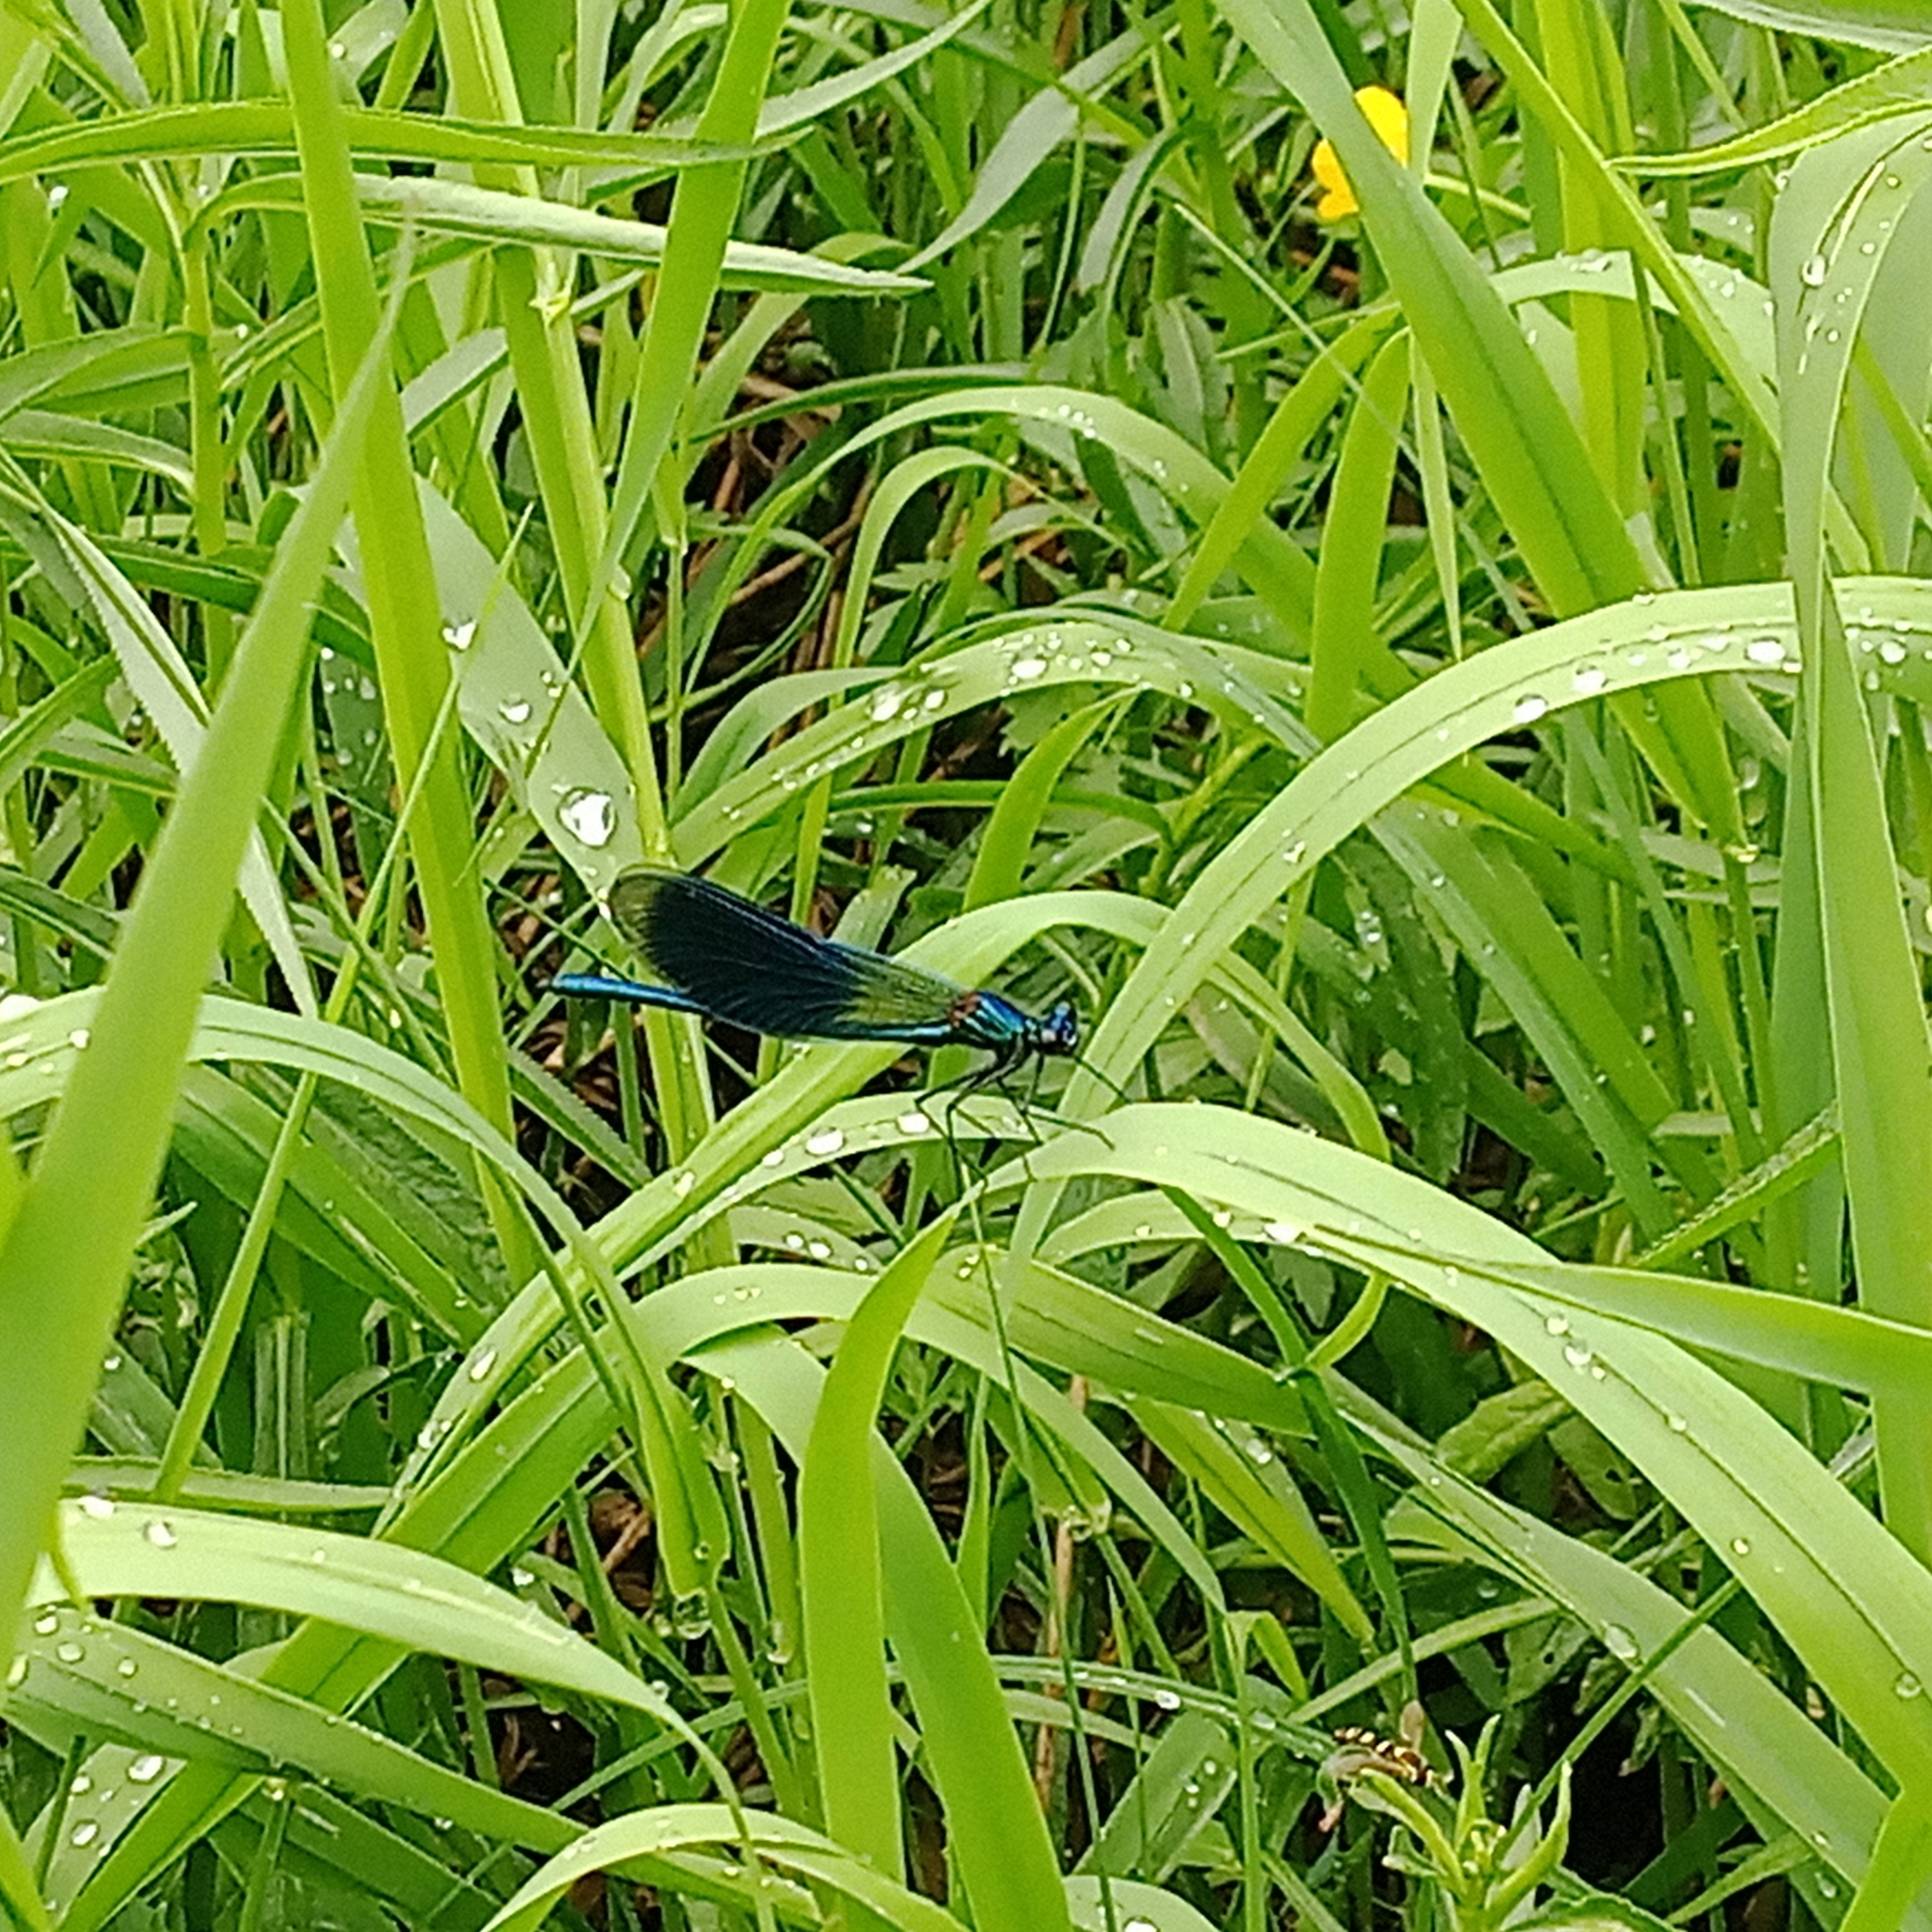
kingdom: Animalia
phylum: Arthropoda
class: Insecta
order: Odonata
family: Calopterygidae
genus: Calopteryx
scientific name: Calopteryx splendens
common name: Banded demoiselle
